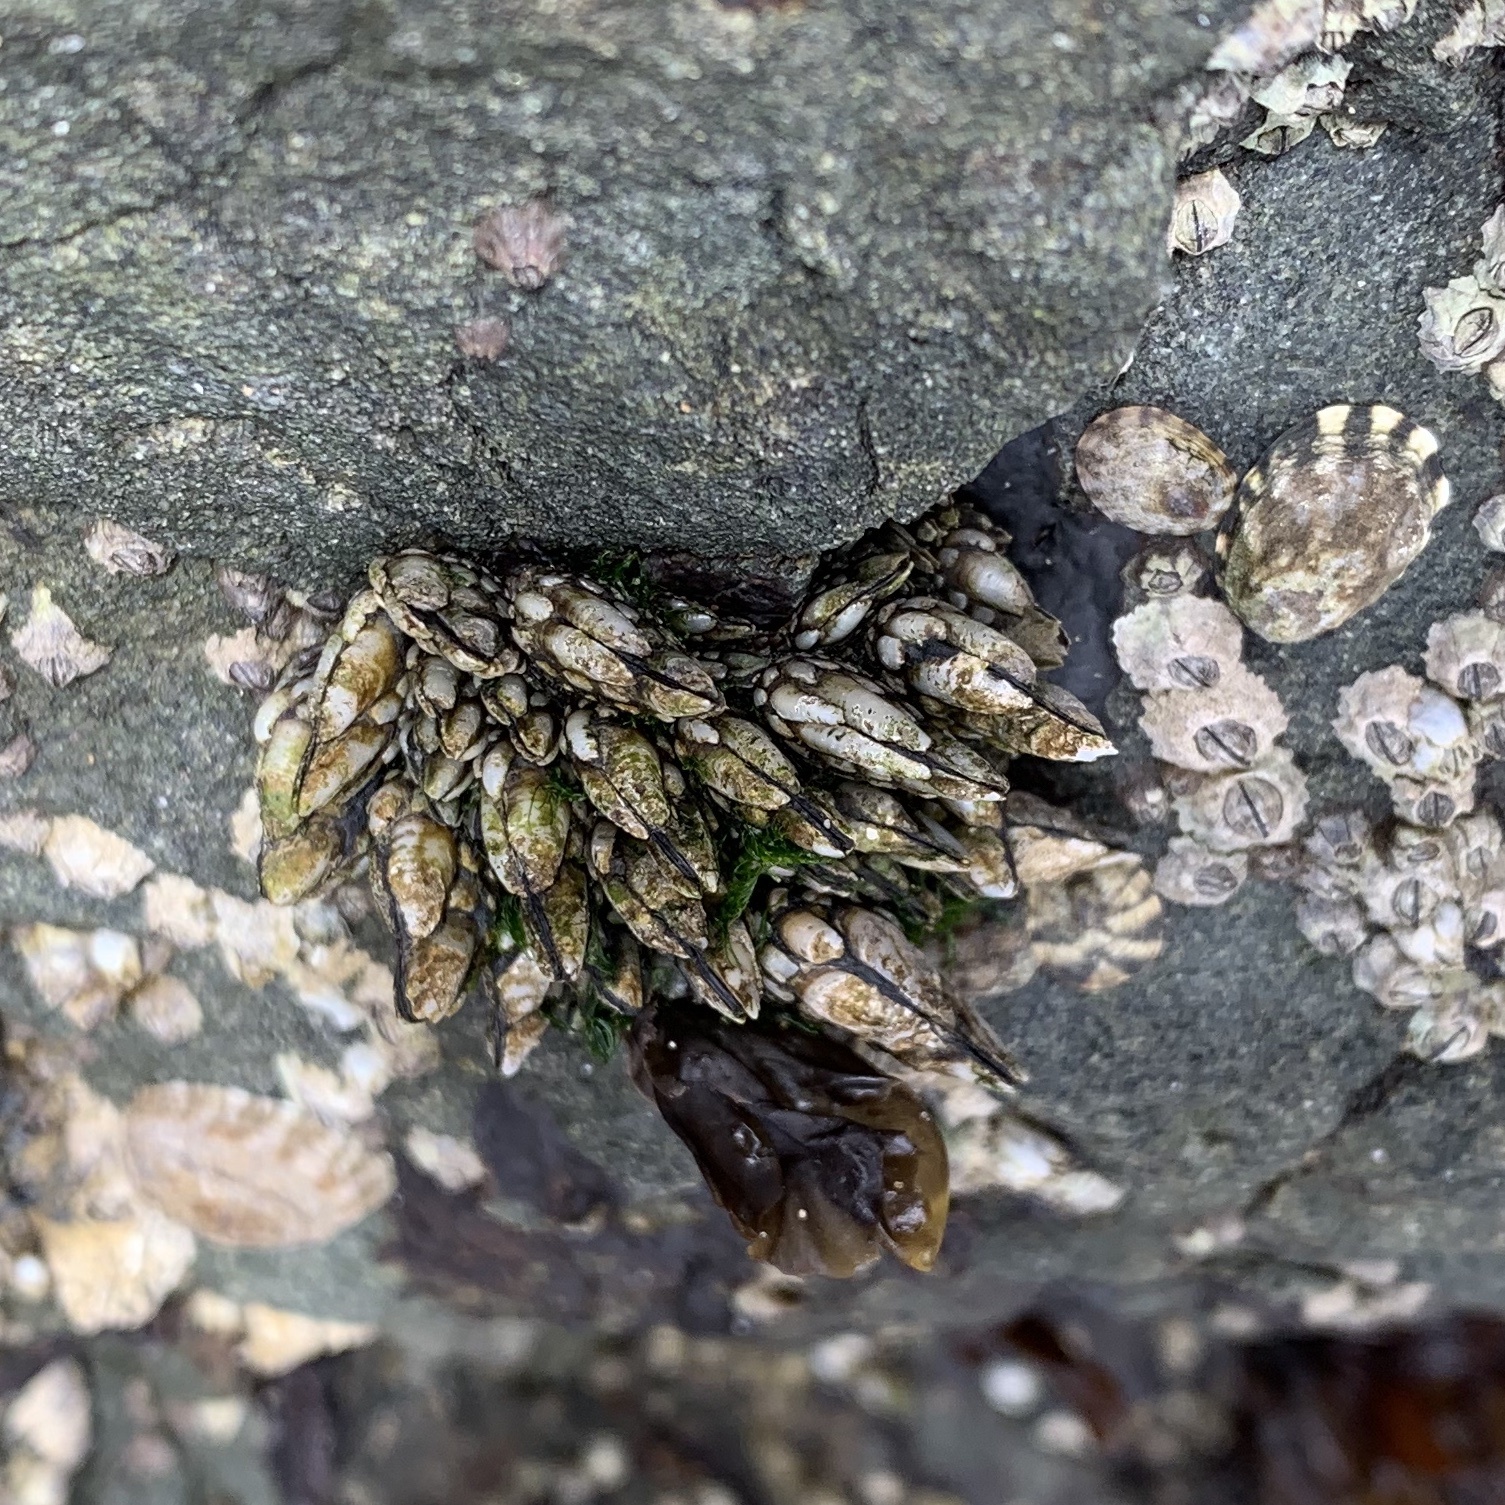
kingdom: Animalia
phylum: Arthropoda
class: Maxillopoda
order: Pedunculata
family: Pollicipedidae
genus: Pollicipes
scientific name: Pollicipes polymerus
